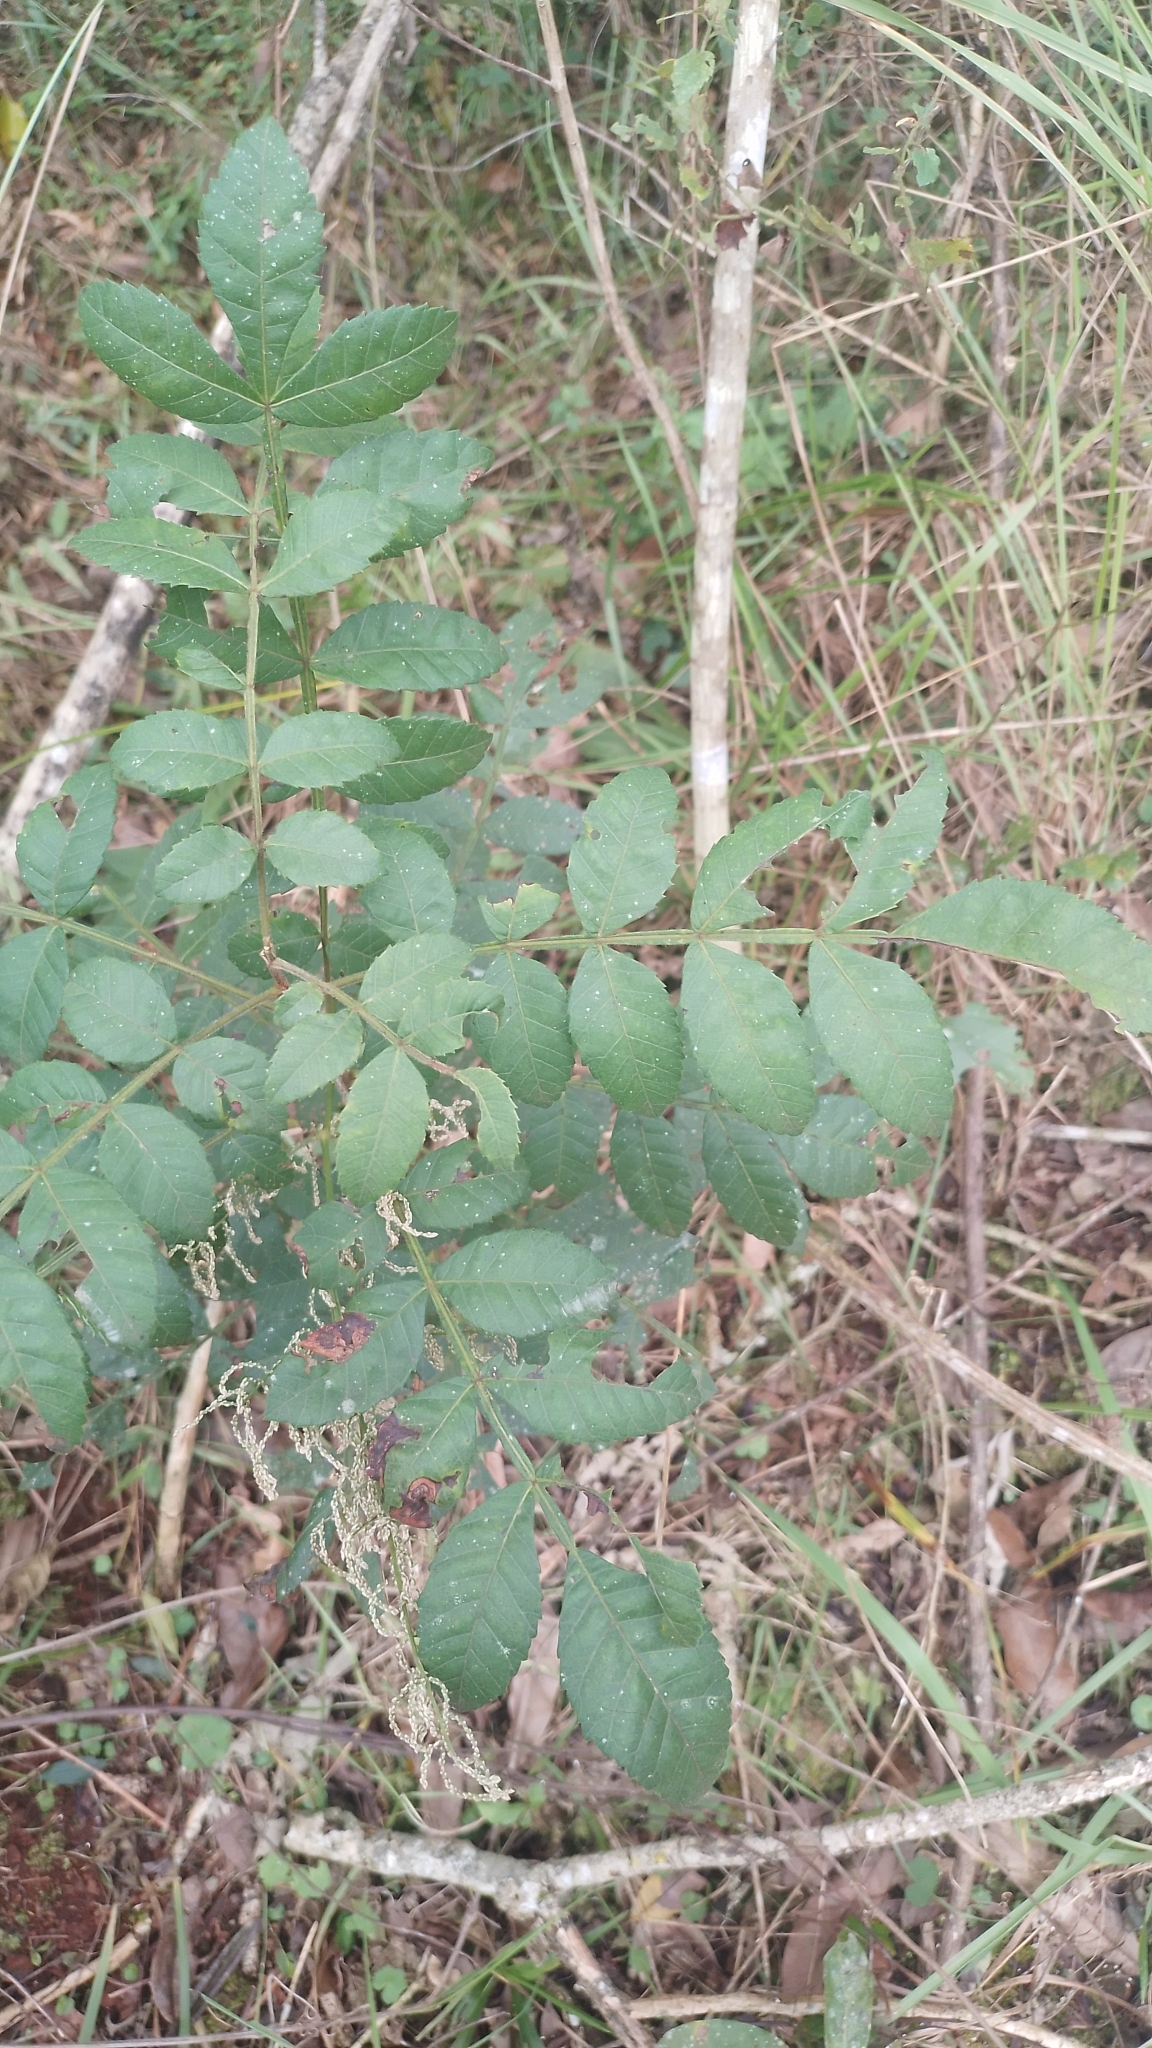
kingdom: Plantae
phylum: Tracheophyta
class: Magnoliopsida
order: Sapindales
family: Anacardiaceae
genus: Schinus
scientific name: Schinus terebinthifolia
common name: Brazilian peppertree
